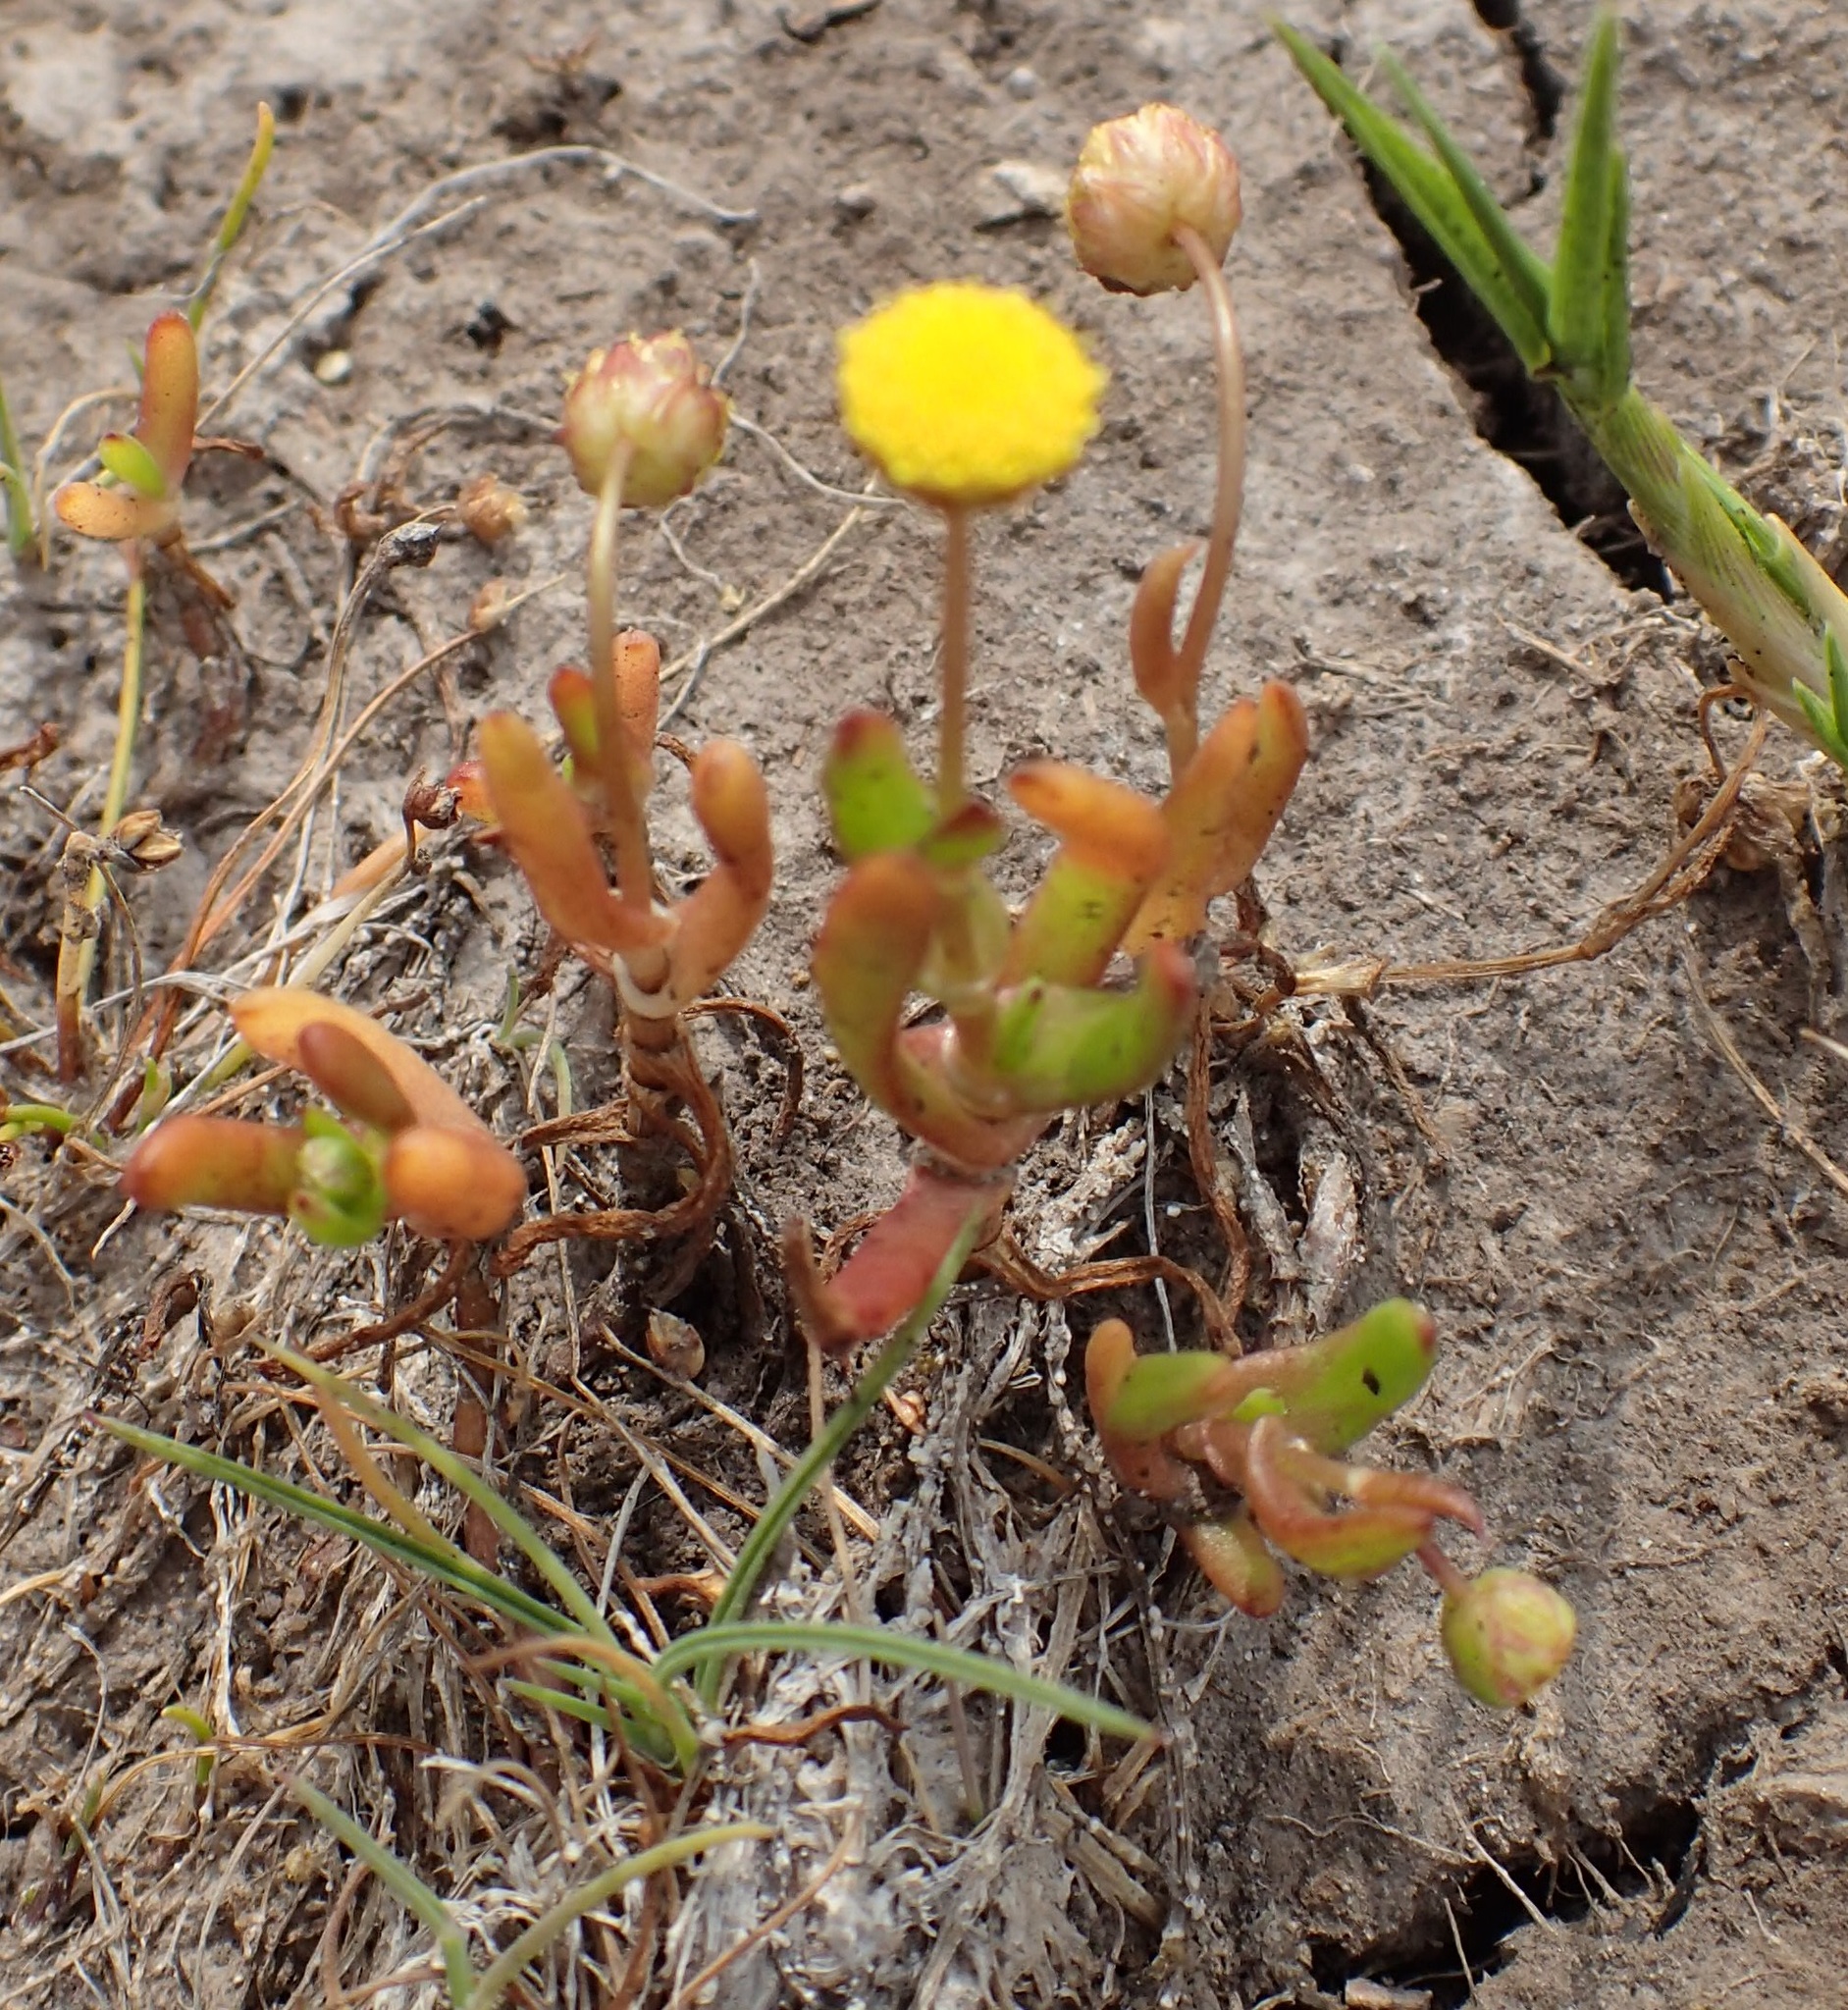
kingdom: Plantae
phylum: Tracheophyta
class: Magnoliopsida
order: Asterales
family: Asteraceae
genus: Cotula
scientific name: Cotula coronopifolia
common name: Buttonweed
